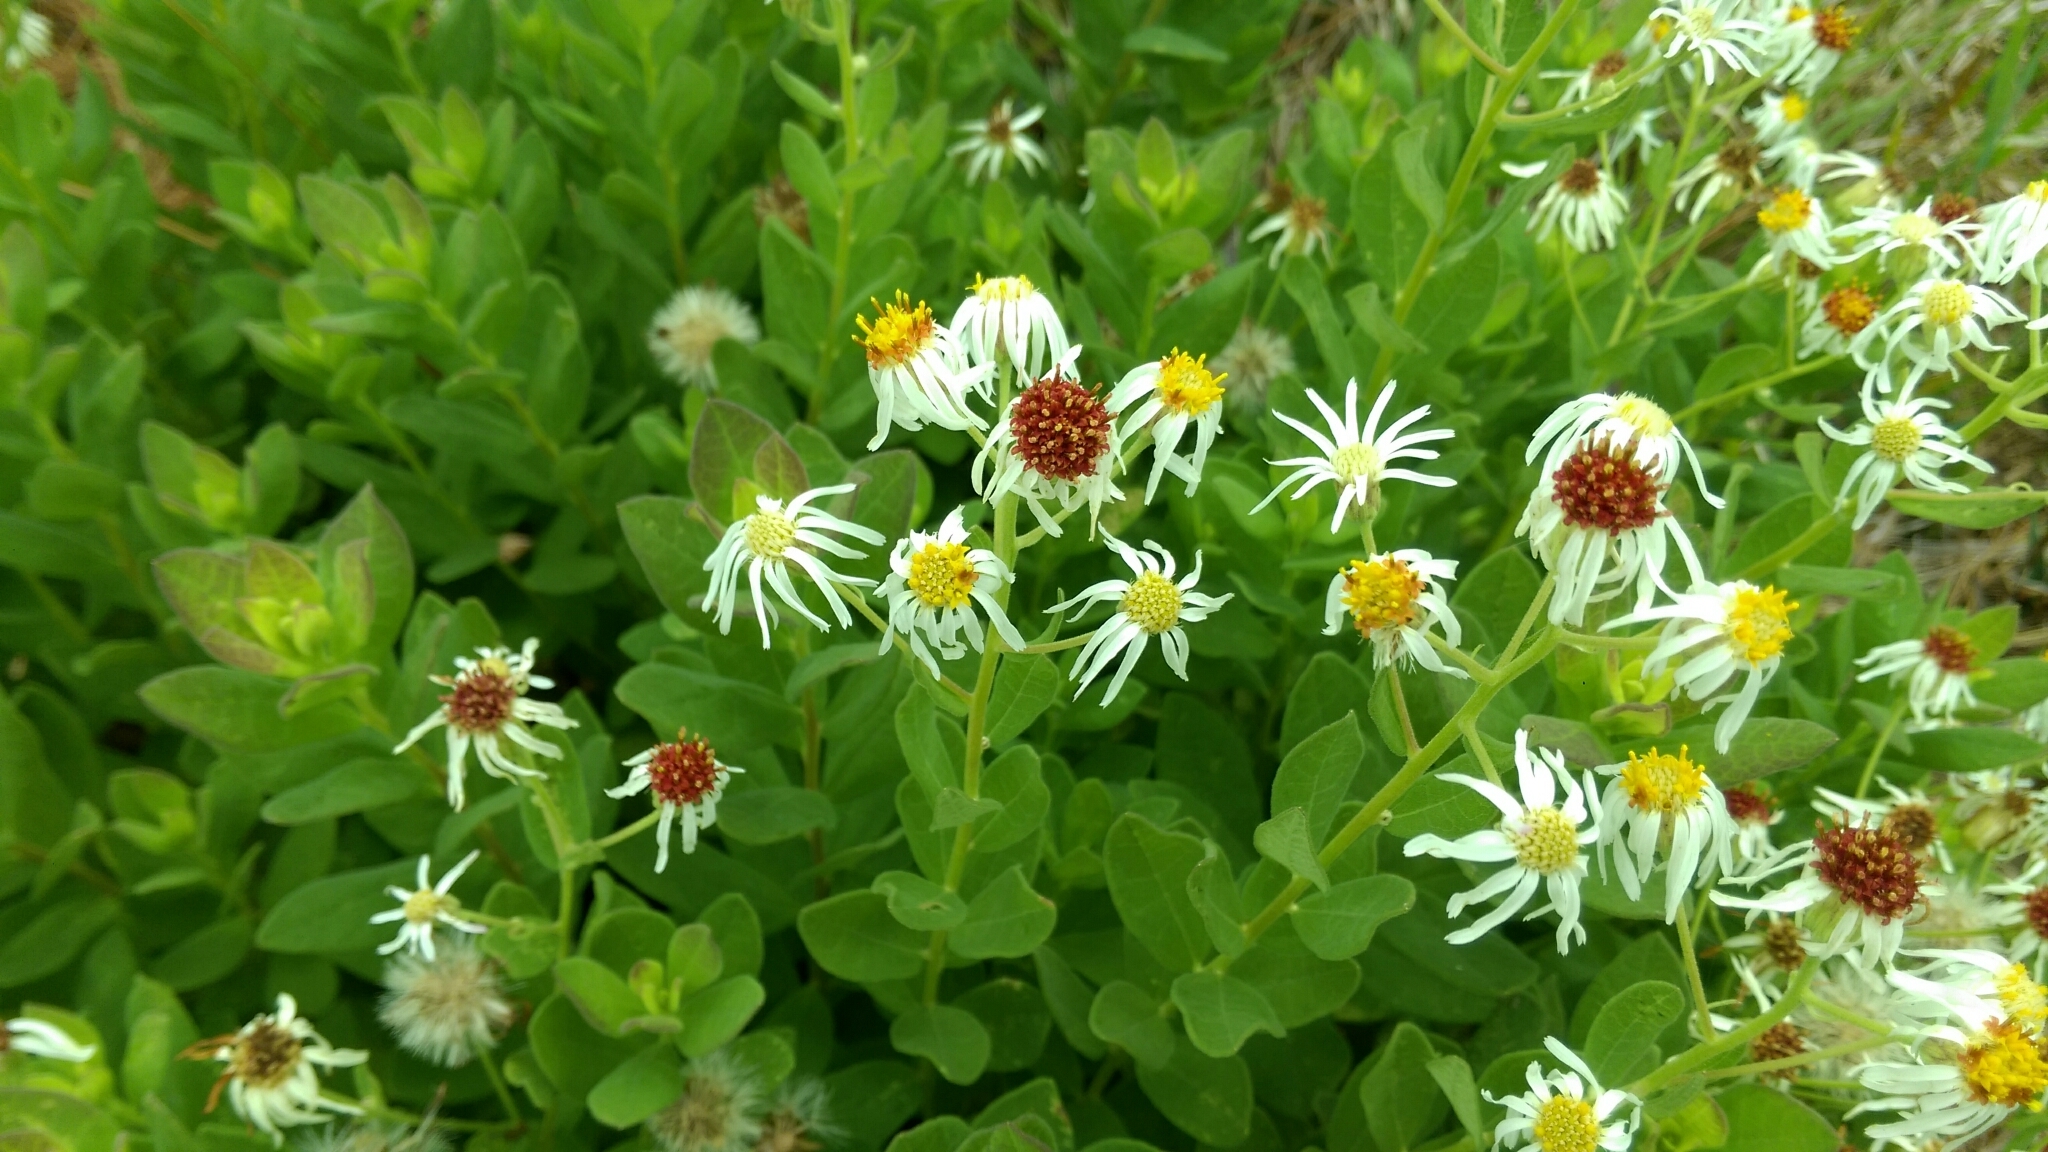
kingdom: Plantae
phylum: Tracheophyta
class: Magnoliopsida
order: Asterales
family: Asteraceae
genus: Oclemena
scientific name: Oclemena reticulata
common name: Pinebarren aster
